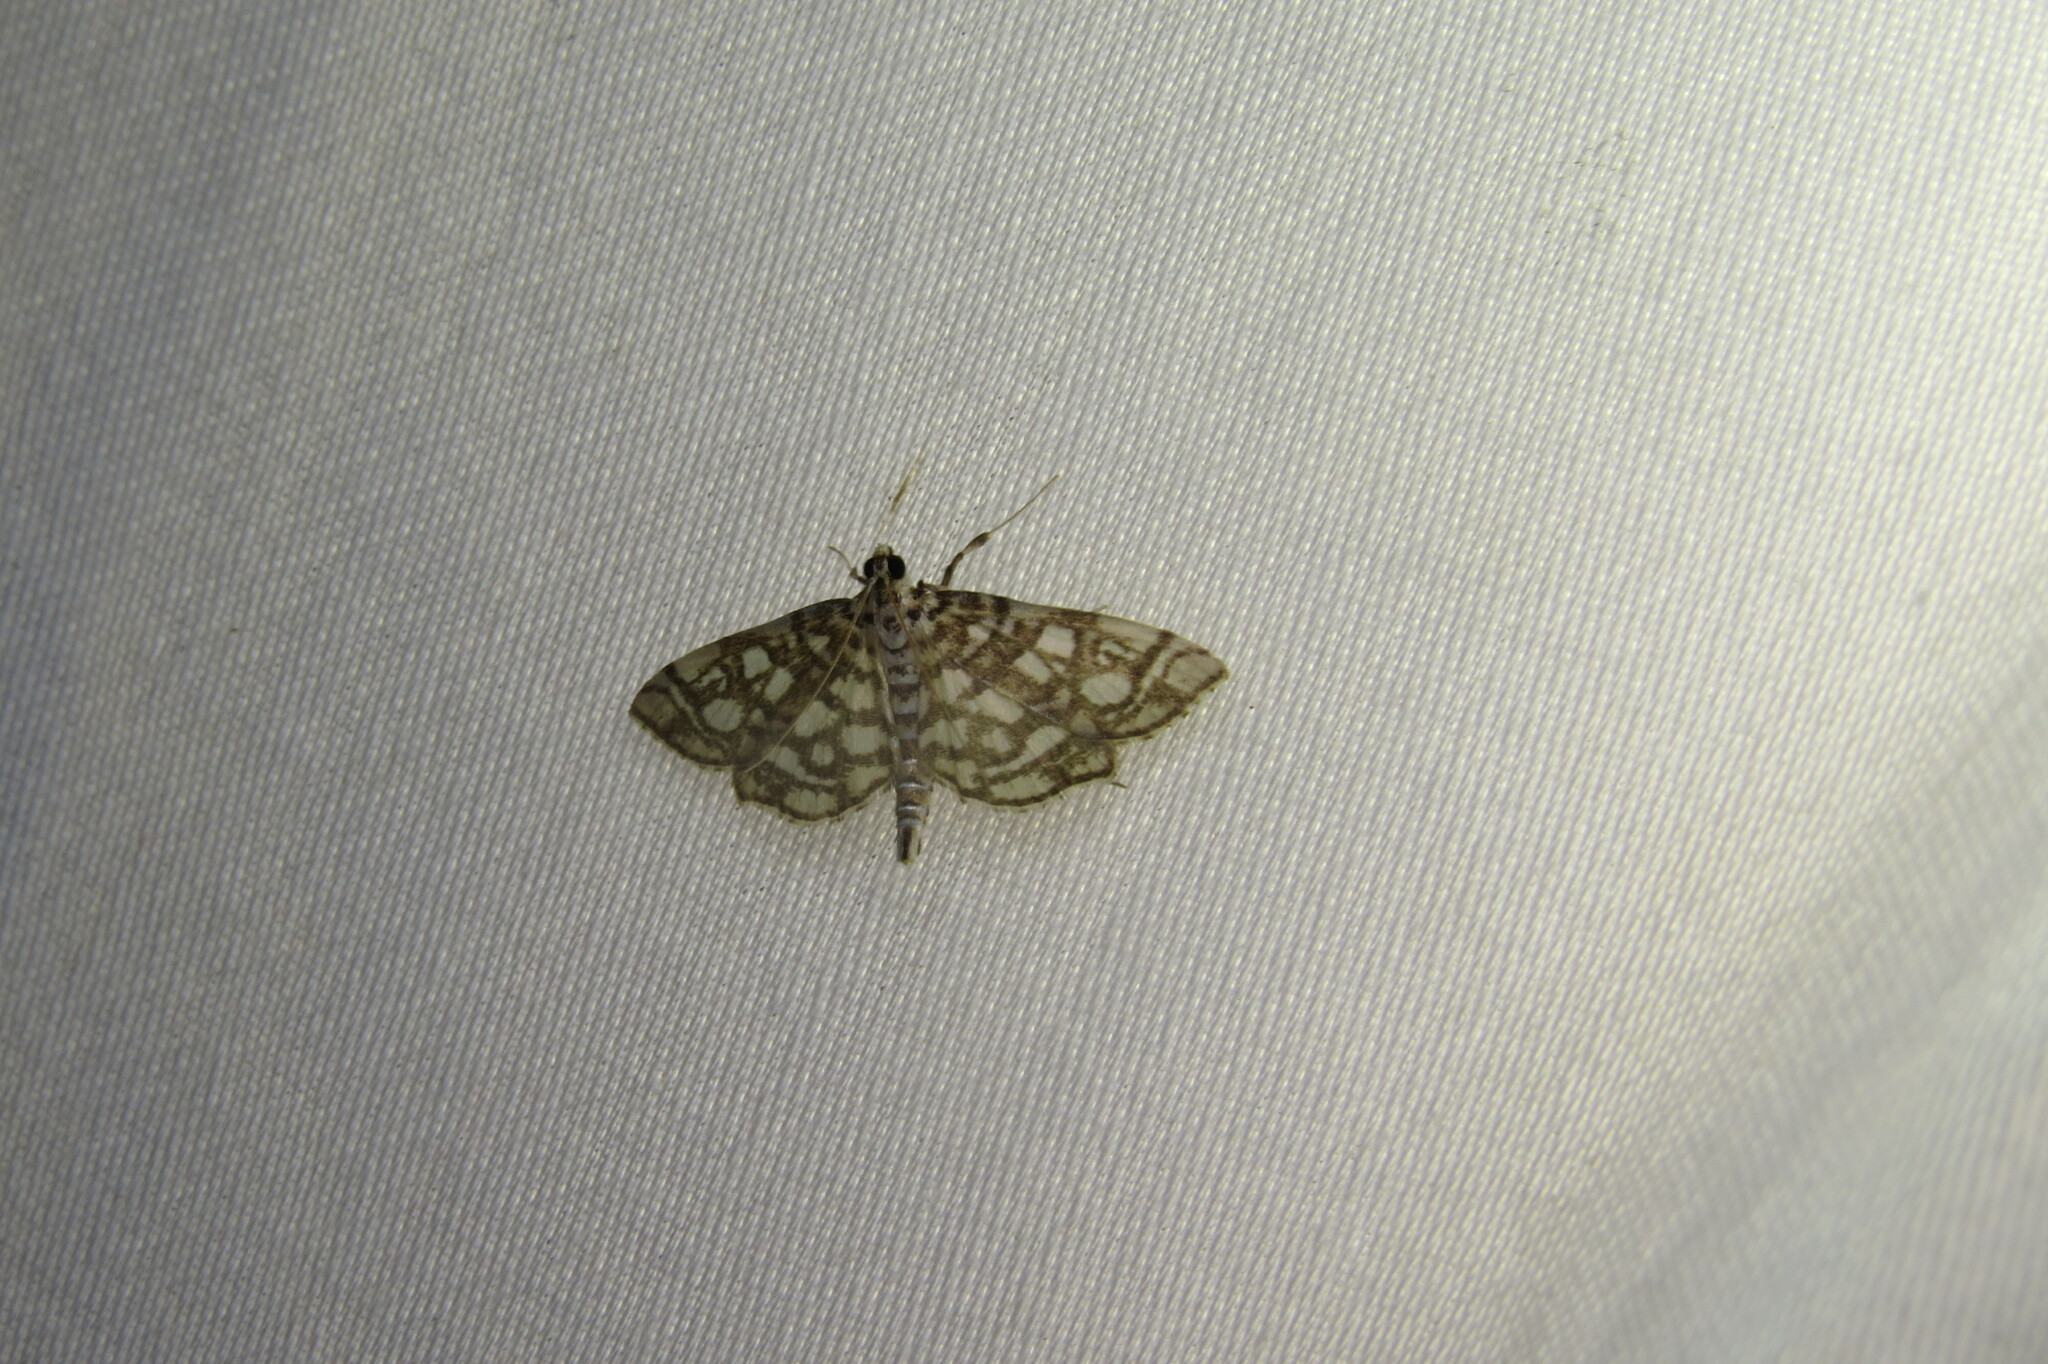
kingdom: Animalia
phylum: Arthropoda
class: Insecta
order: Lepidoptera
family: Crambidae
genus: Lygropia
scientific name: Lygropia rivulalis
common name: Bog lygropia moth
